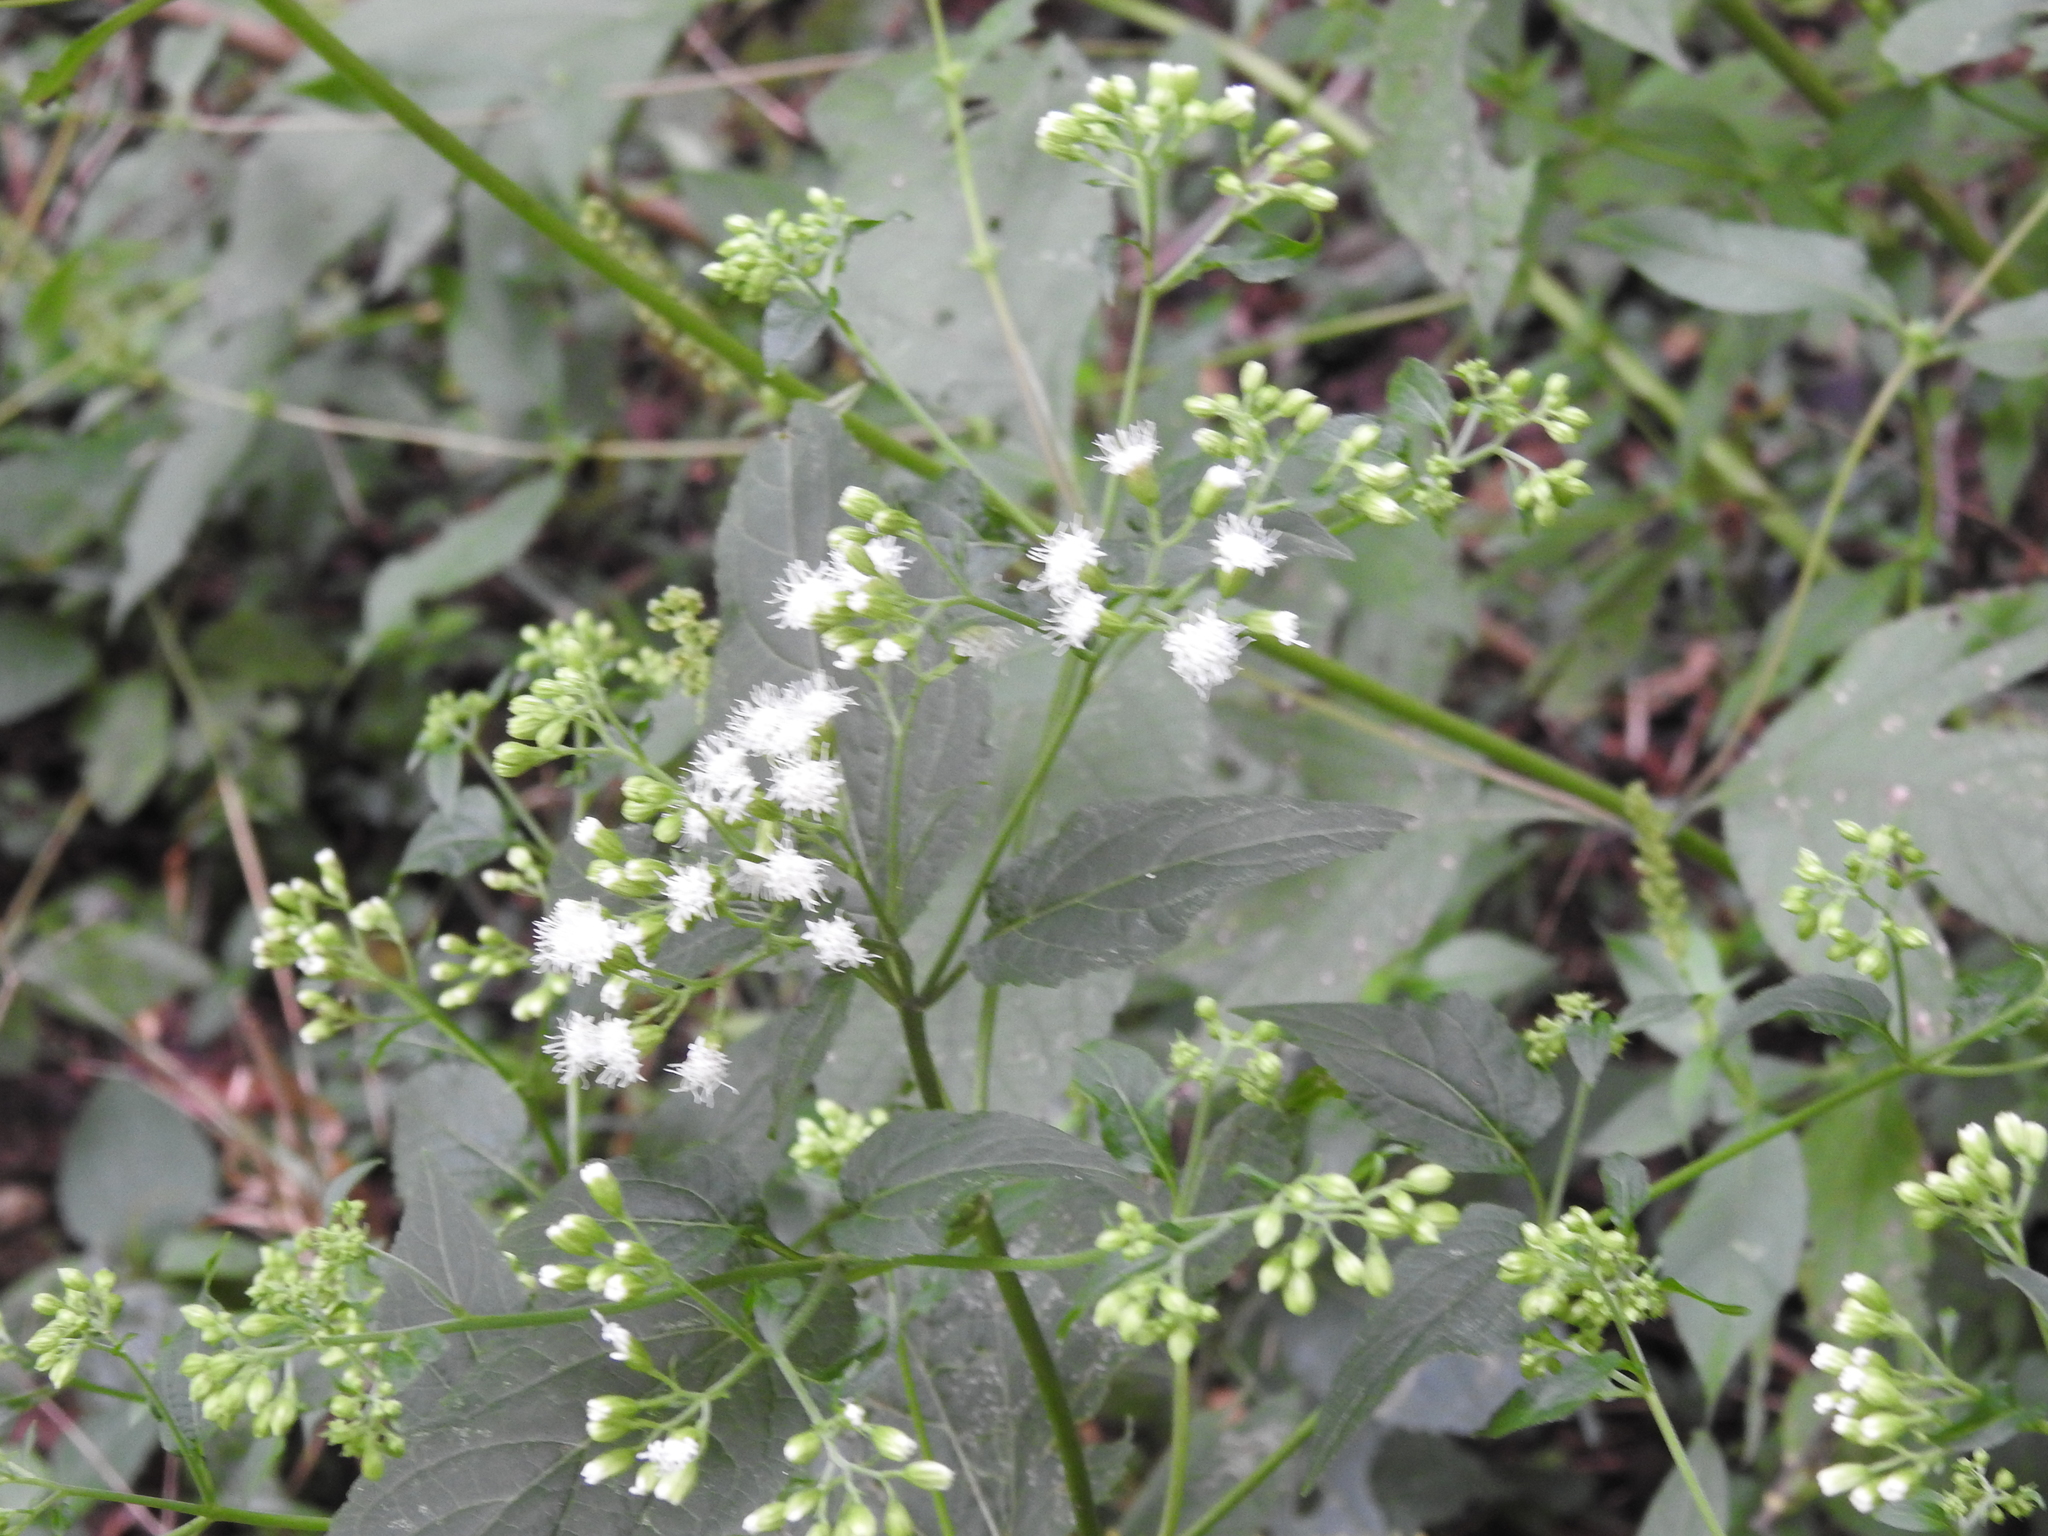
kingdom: Plantae
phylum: Tracheophyta
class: Magnoliopsida
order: Asterales
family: Asteraceae
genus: Ageratina
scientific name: Ageratina altissima
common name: White snakeroot
